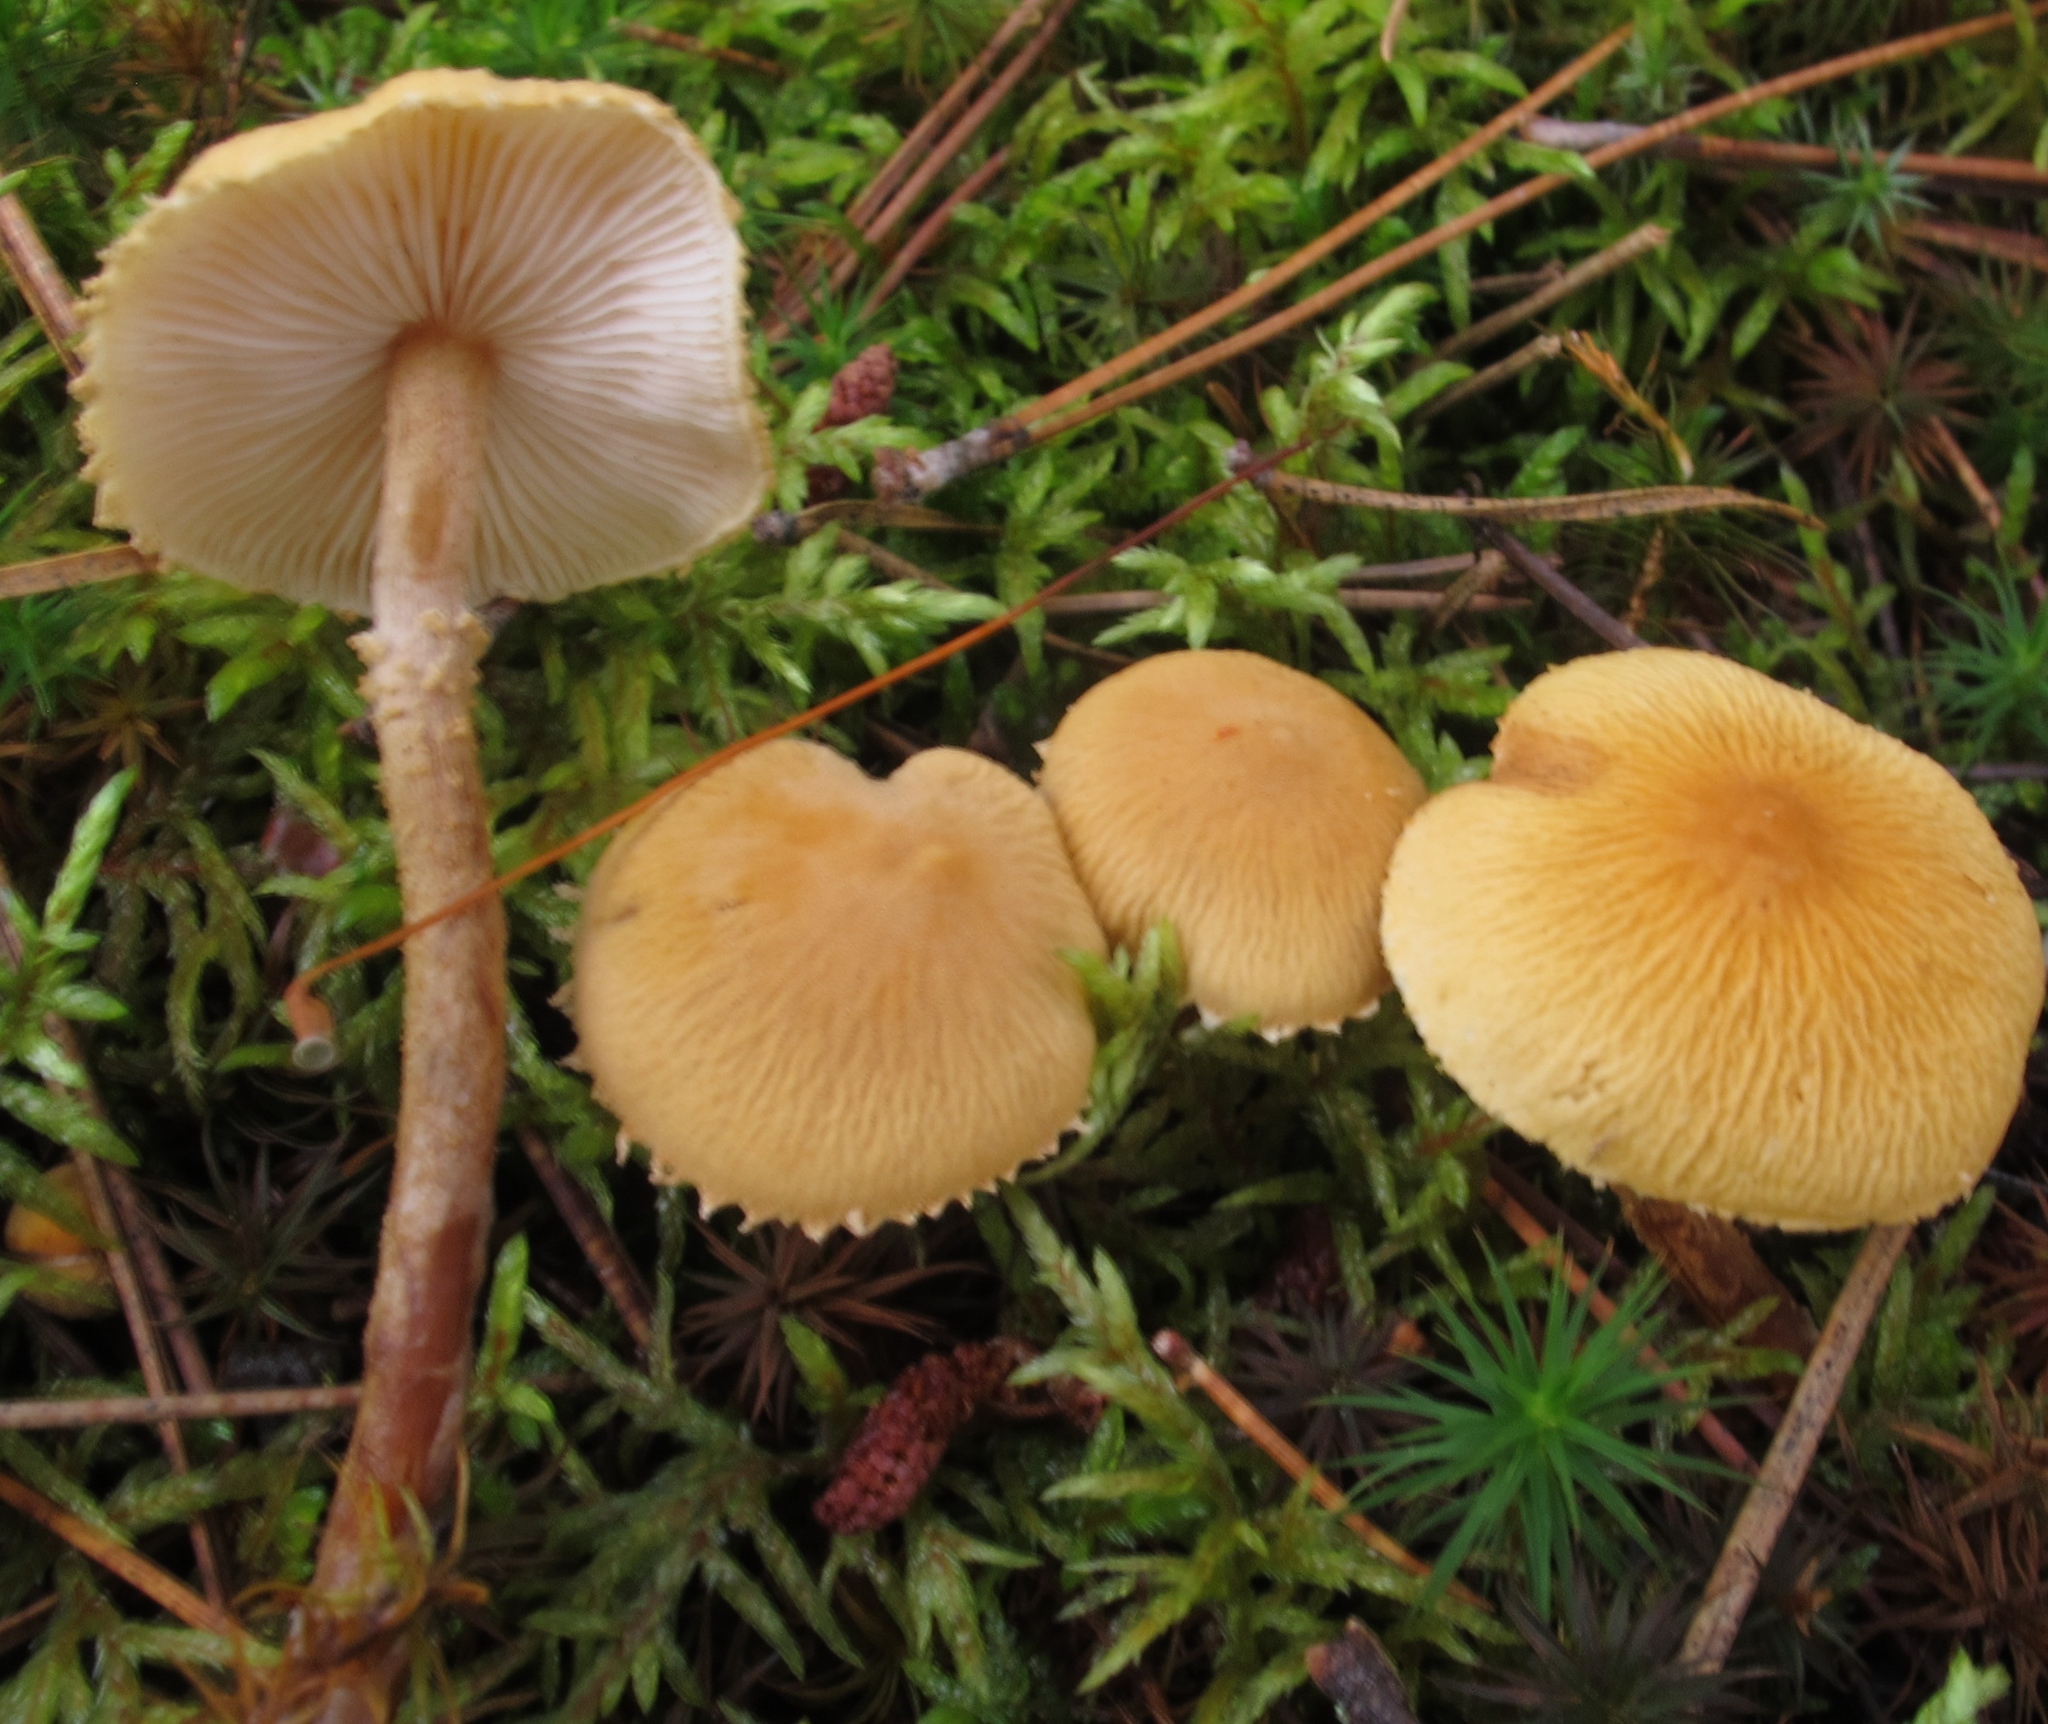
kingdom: Fungi
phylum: Basidiomycota
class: Agaricomycetes
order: Agaricales
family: Tricholomataceae
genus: Cystoderma
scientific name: Cystoderma amianthinum
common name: Earthy powdercap
